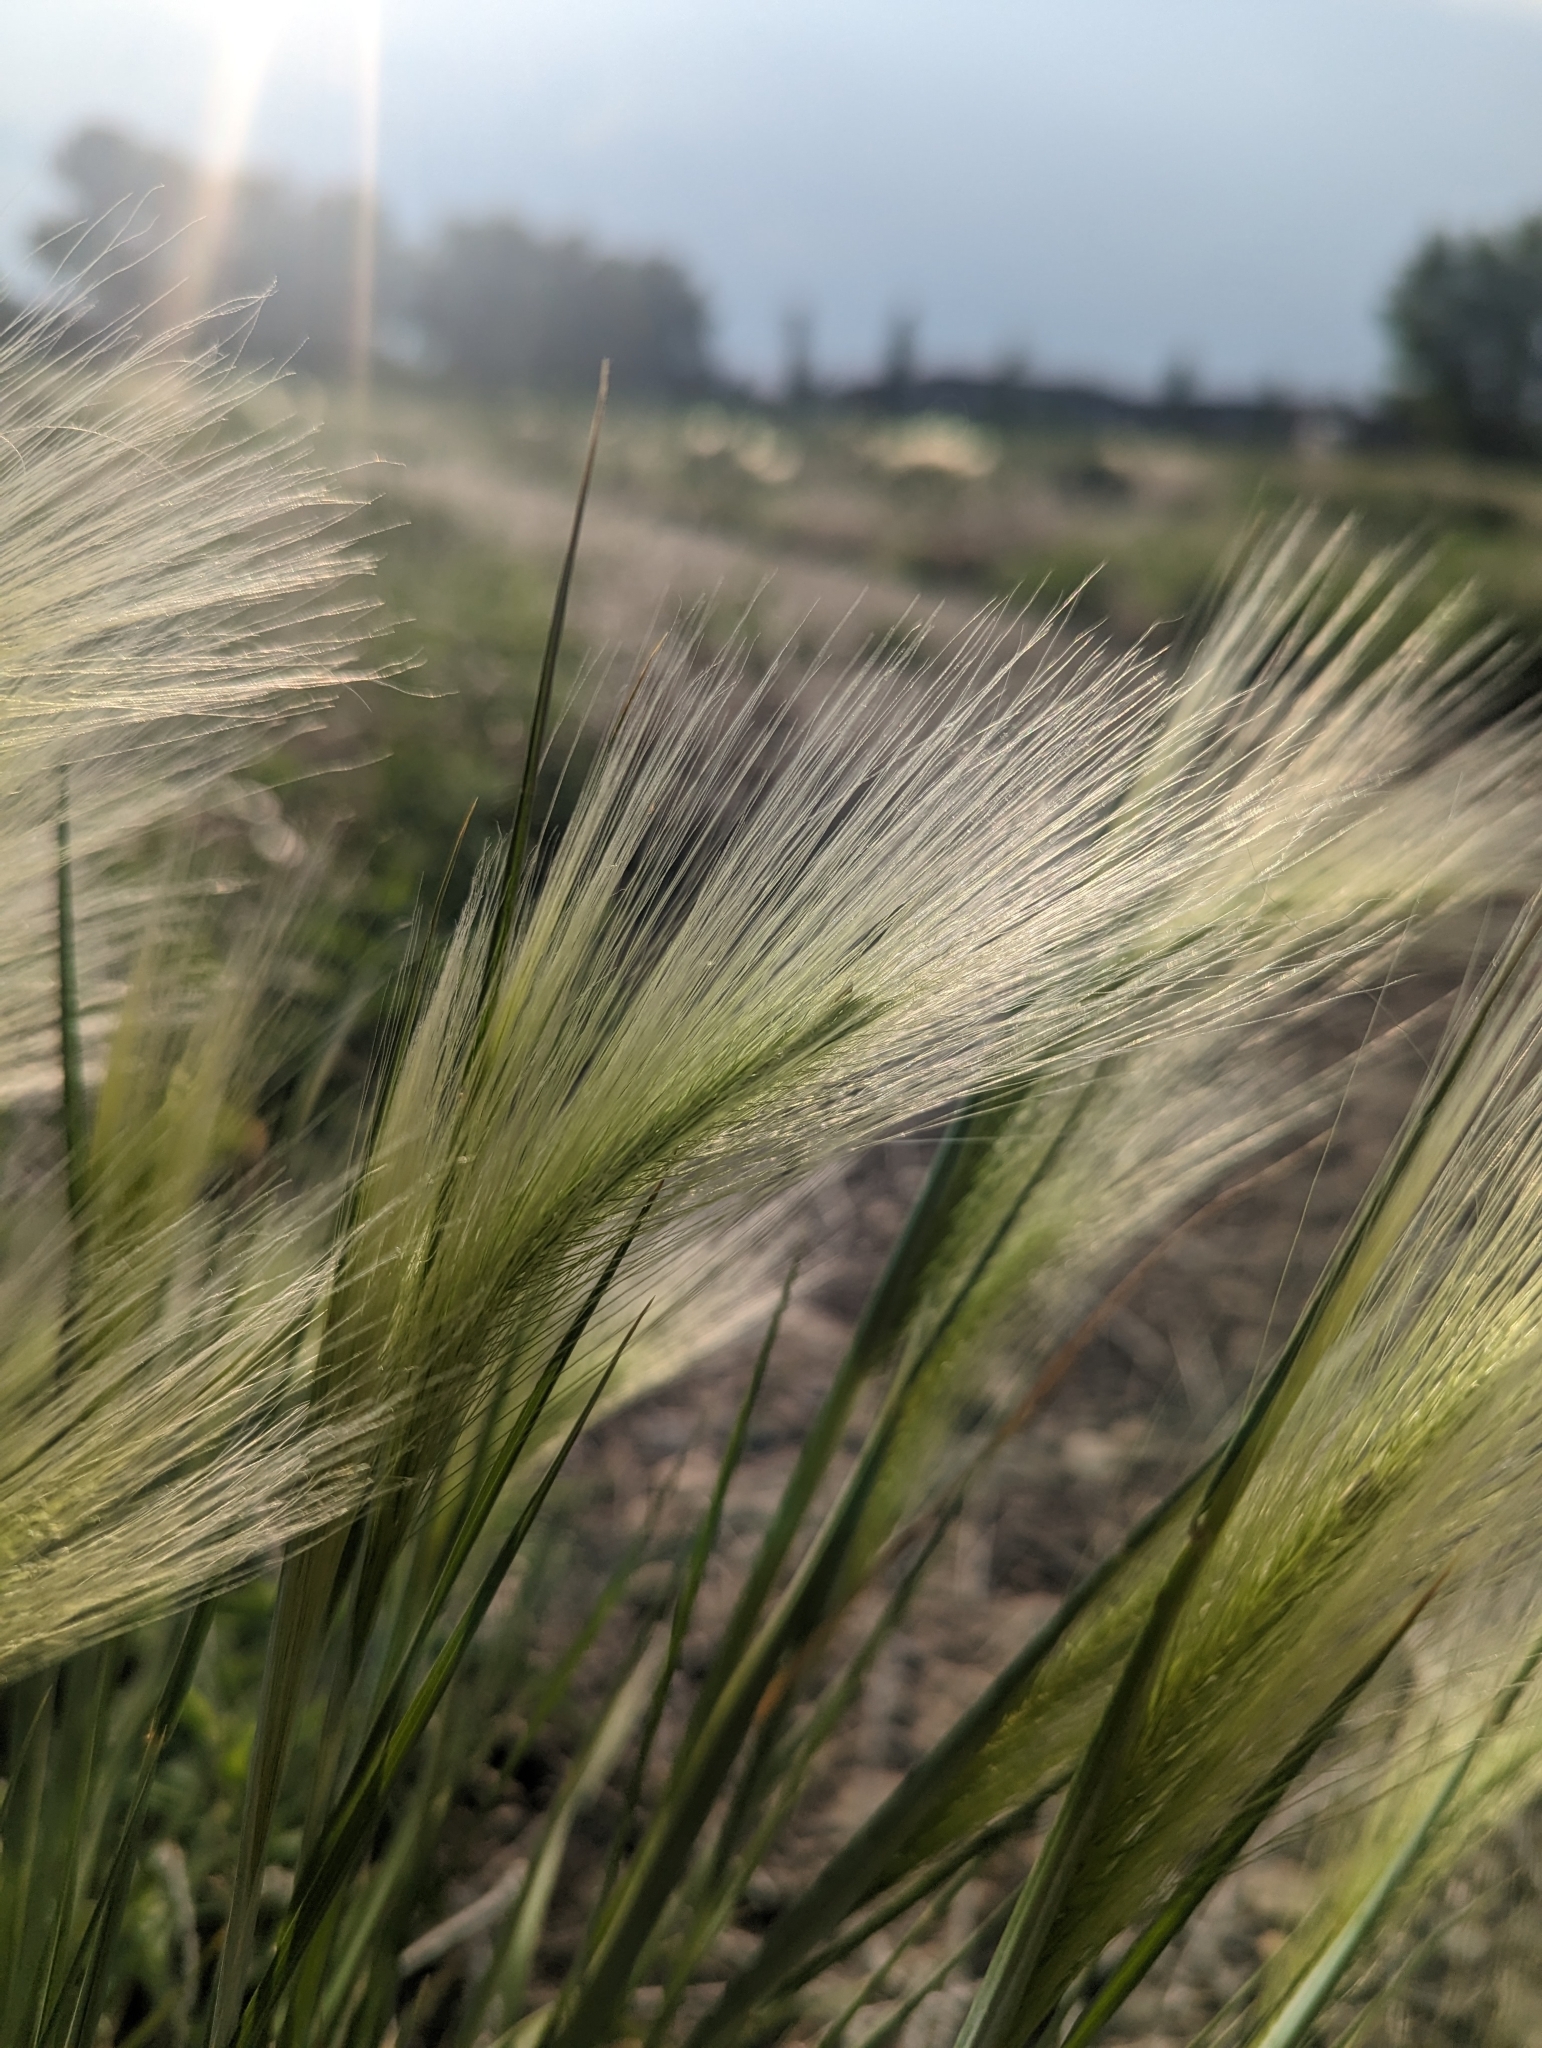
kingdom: Plantae
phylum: Tracheophyta
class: Liliopsida
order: Poales
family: Poaceae
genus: Hordeum
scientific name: Hordeum jubatum
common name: Foxtail barley
